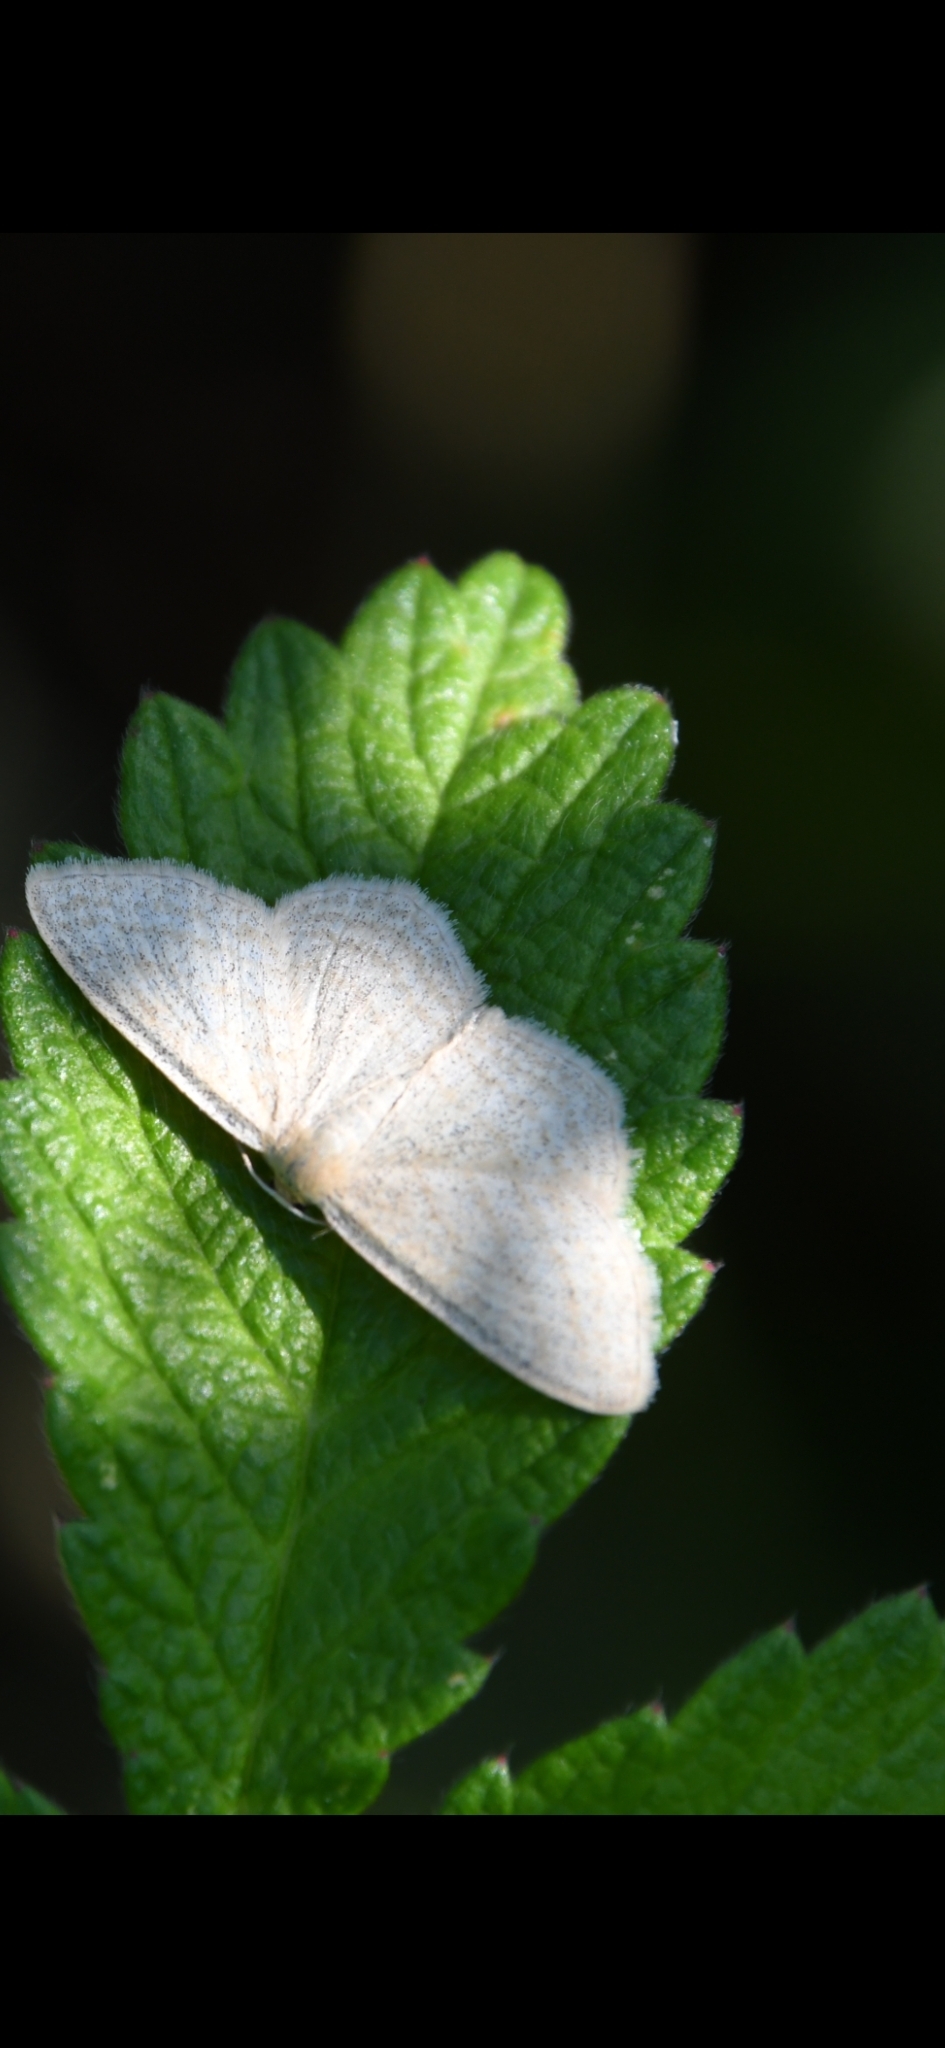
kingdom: Animalia
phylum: Arthropoda
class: Insecta
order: Lepidoptera
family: Geometridae
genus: Scopula
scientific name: Scopula virgulata
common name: Streaked wave
